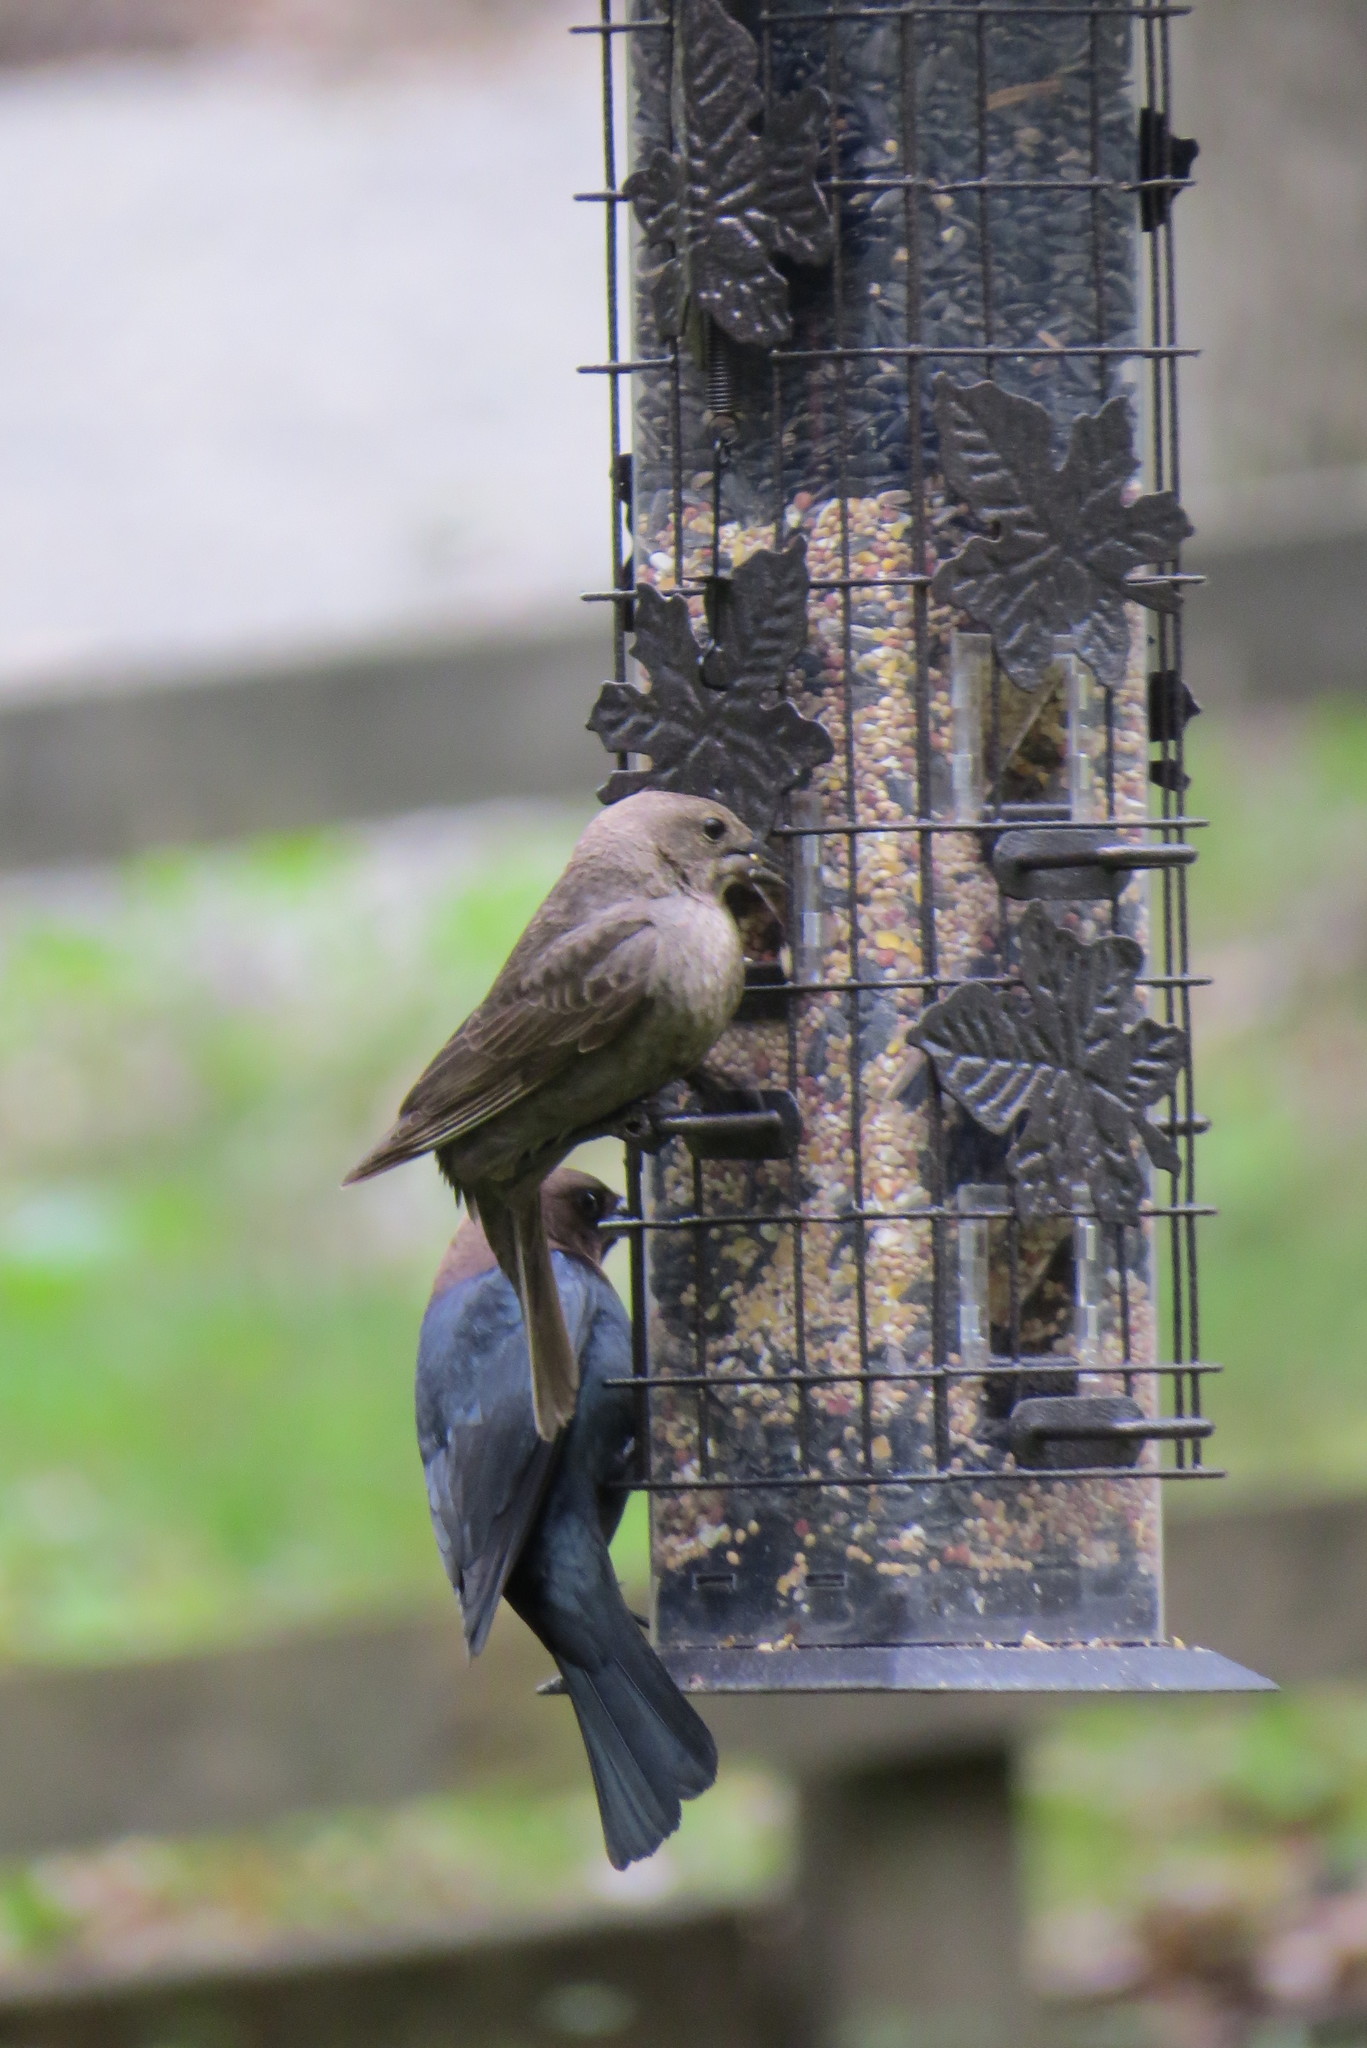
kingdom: Animalia
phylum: Chordata
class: Aves
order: Passeriformes
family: Icteridae
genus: Molothrus
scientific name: Molothrus ater
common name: Brown-headed cowbird
